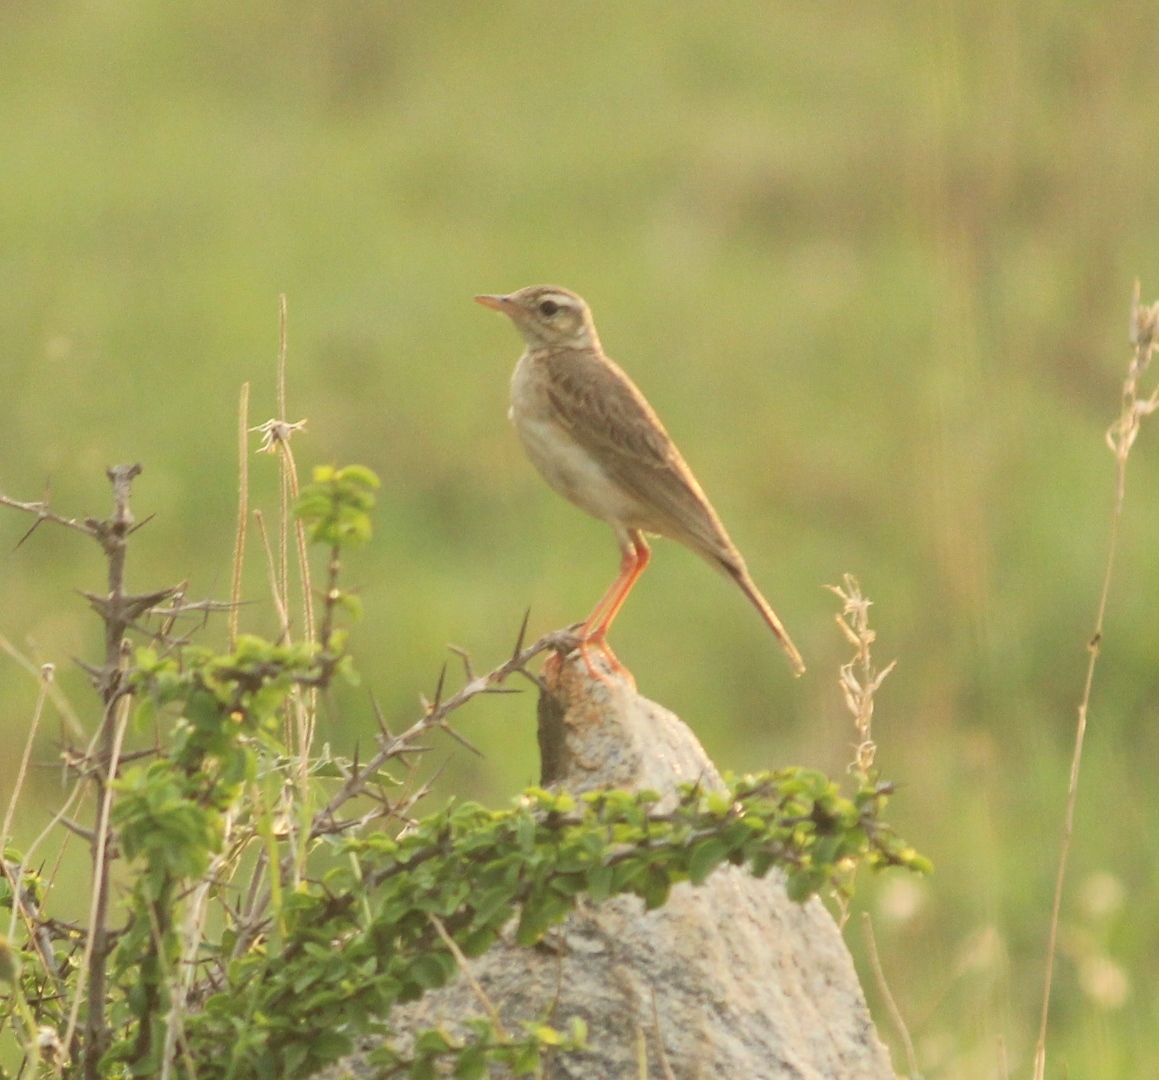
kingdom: Animalia
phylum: Chordata
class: Aves
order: Passeriformes
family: Motacillidae
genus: Anthus
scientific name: Anthus rufulus
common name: Paddyfield pipit
